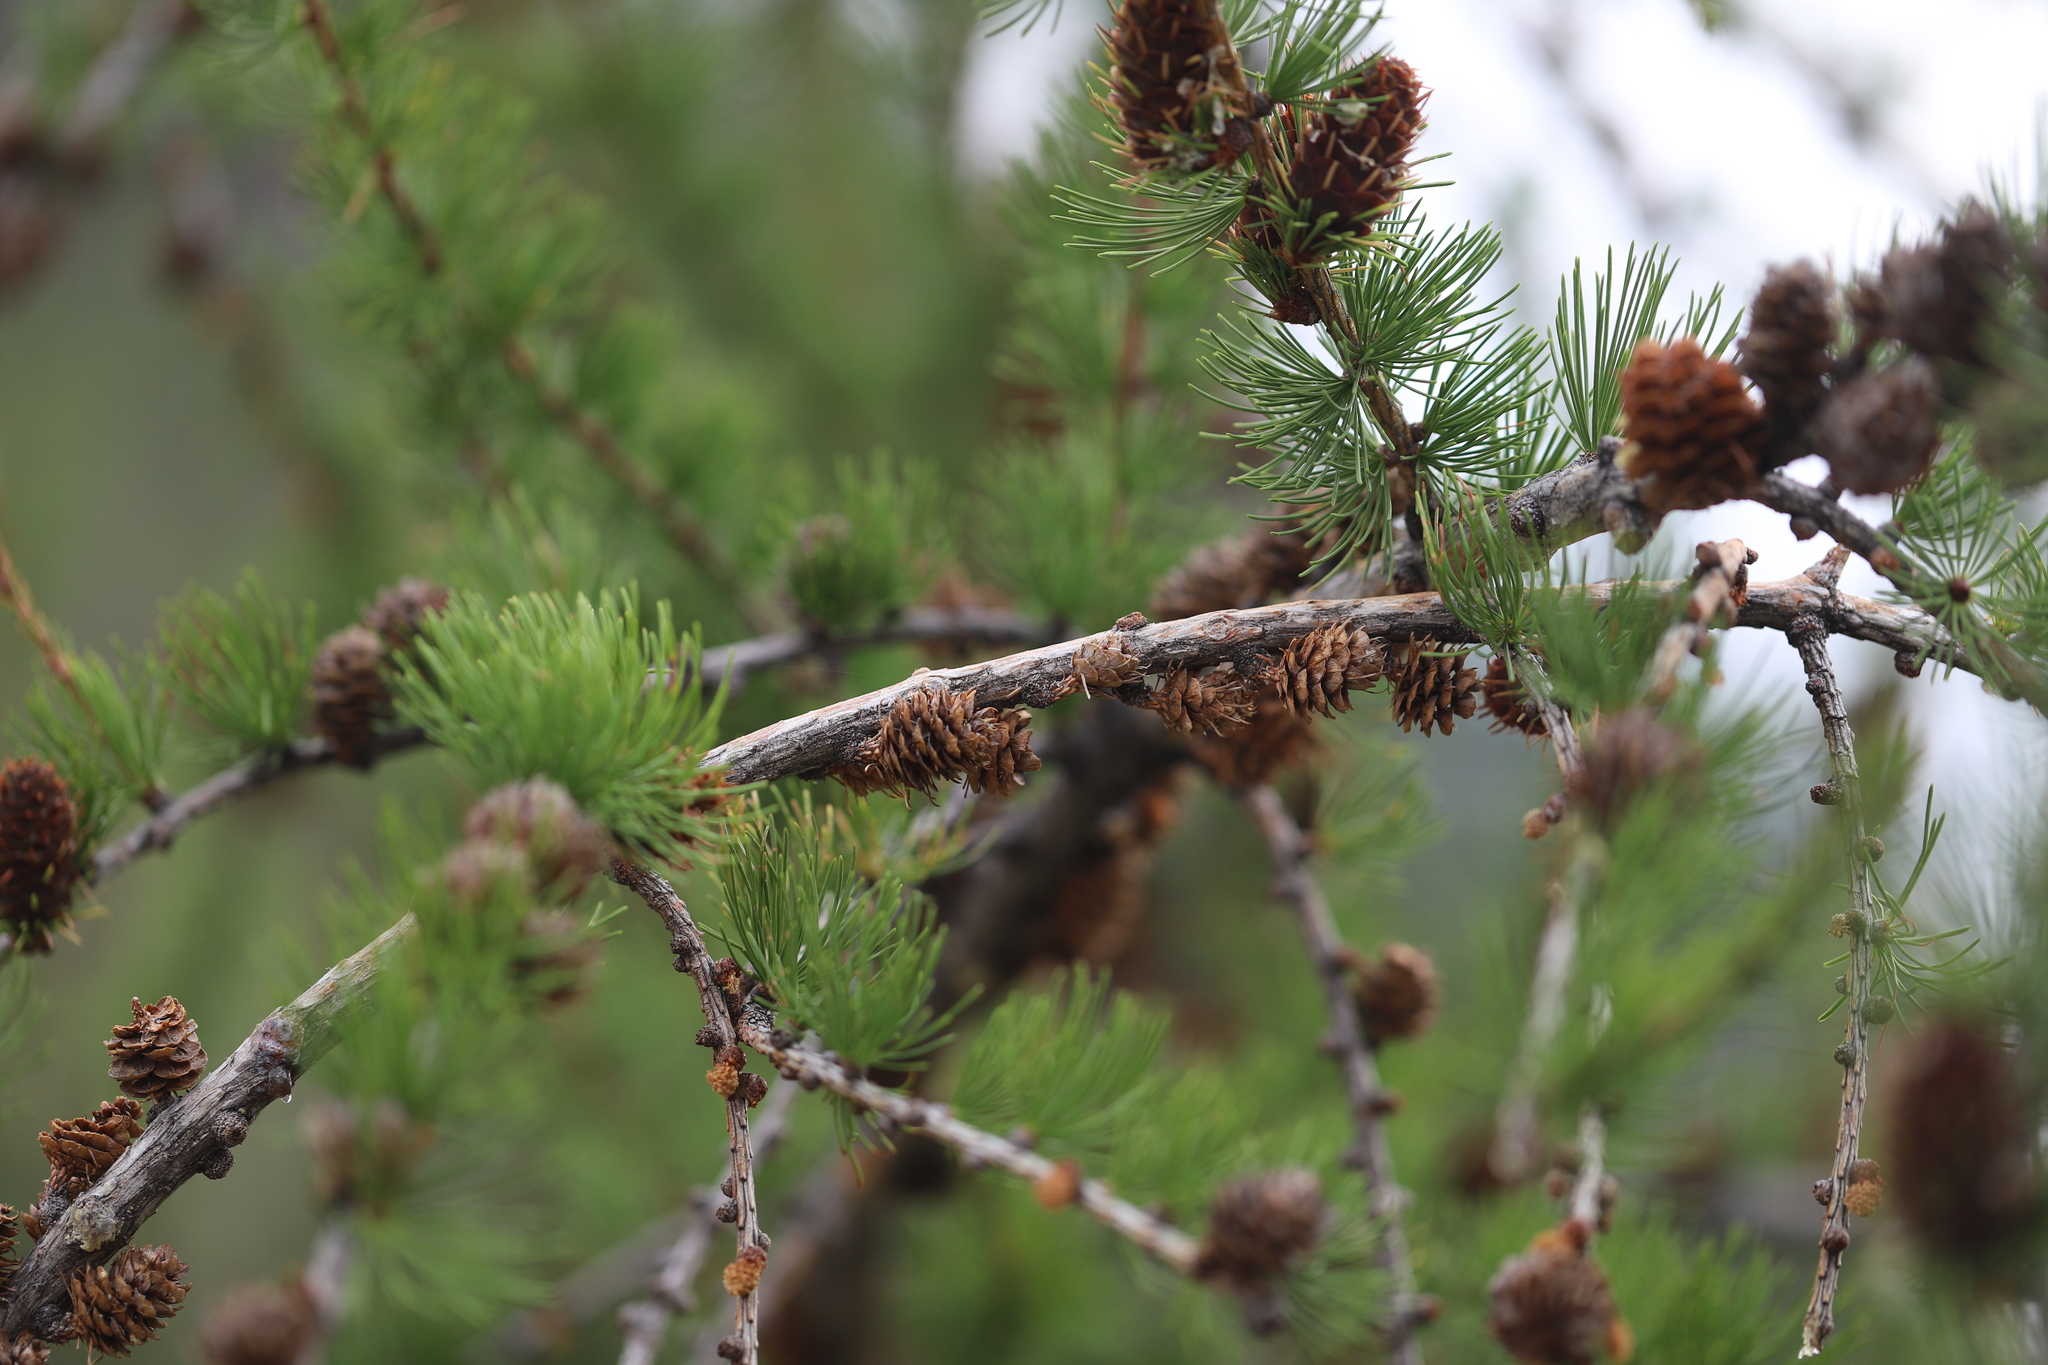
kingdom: Plantae
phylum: Tracheophyta
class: Pinopsida
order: Pinales
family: Pinaceae
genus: Larix
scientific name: Larix occidentalis
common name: Western larch
